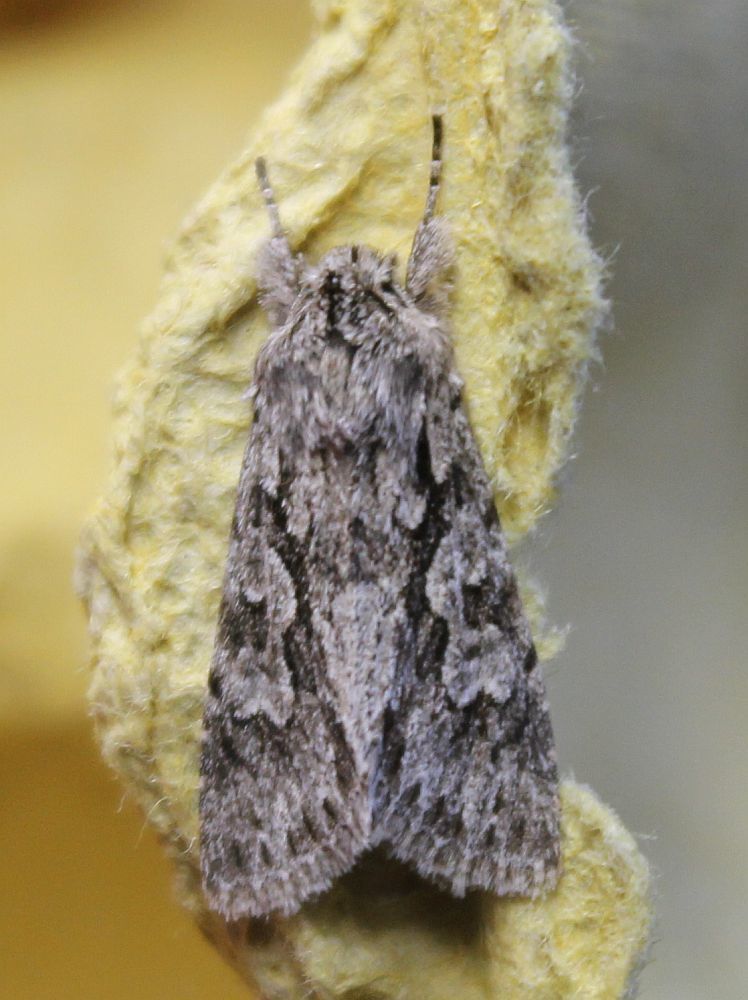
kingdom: Animalia
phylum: Arthropoda
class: Insecta
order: Lepidoptera
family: Noctuidae
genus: Xylocampa
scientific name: Xylocampa areola
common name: Early grey
